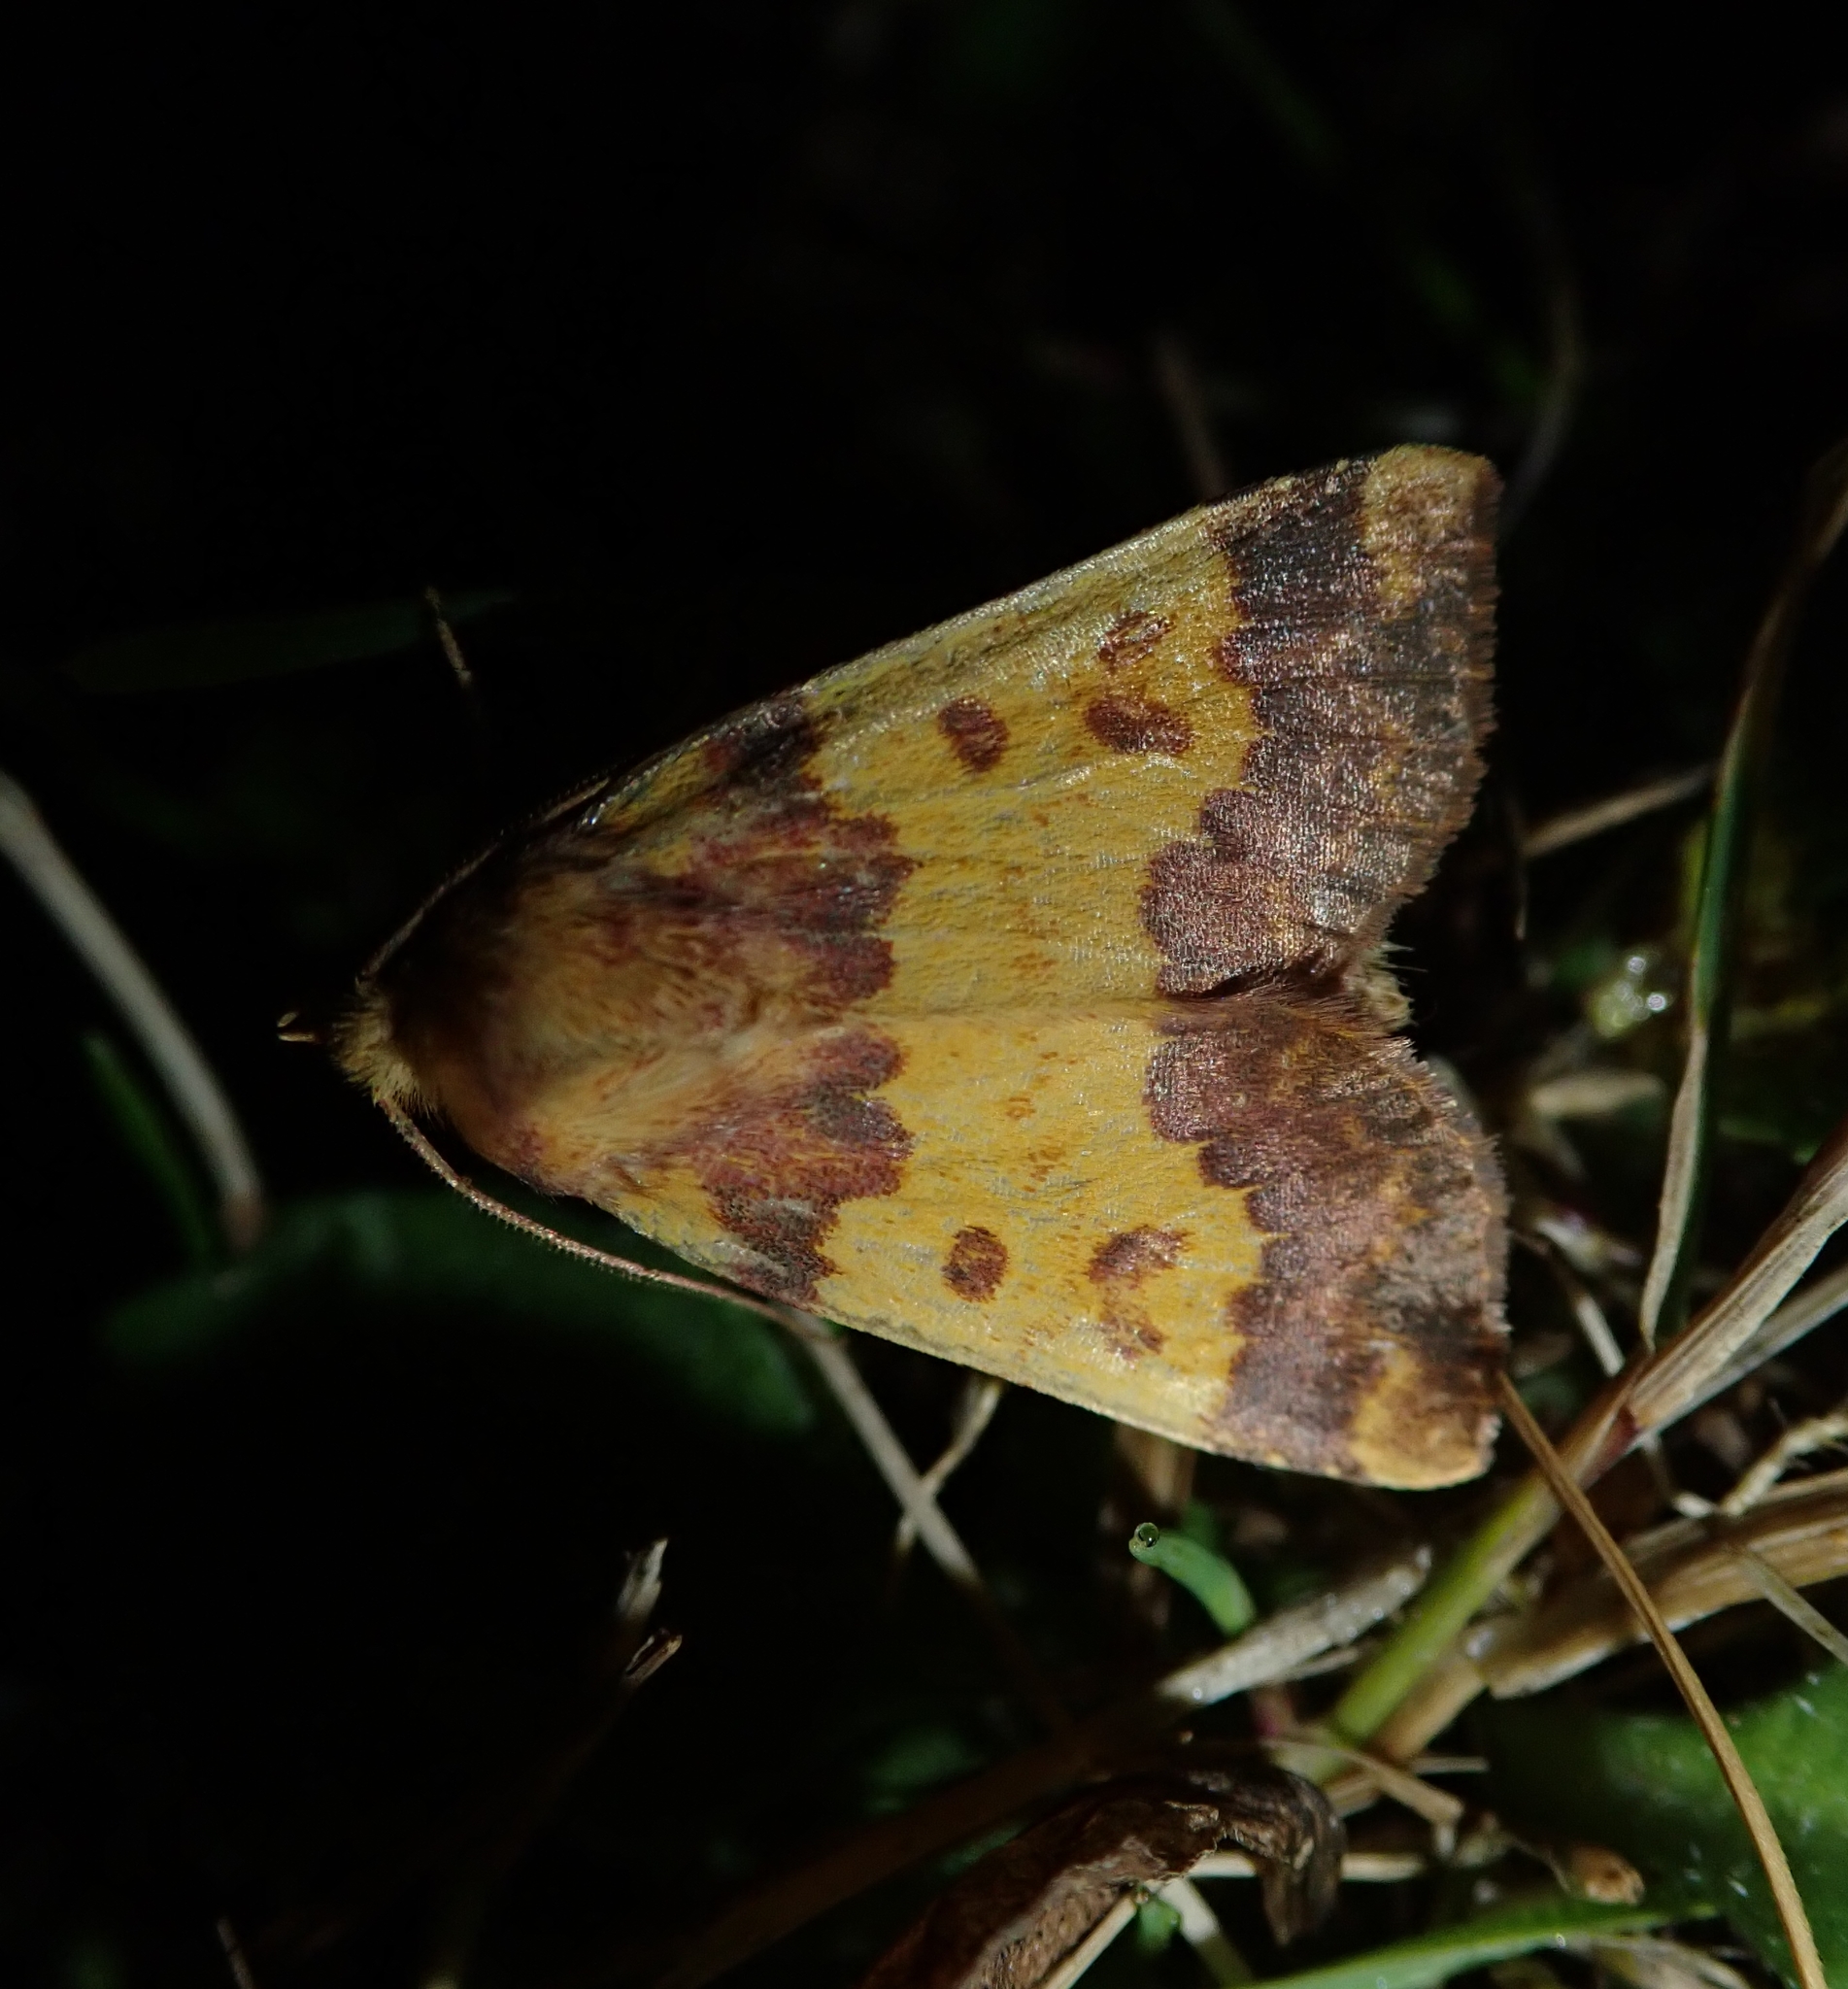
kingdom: Animalia
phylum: Arthropoda
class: Insecta
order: Lepidoptera
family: Noctuidae
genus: Tiliacea
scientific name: Tiliacea aurago
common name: Barred sallow
